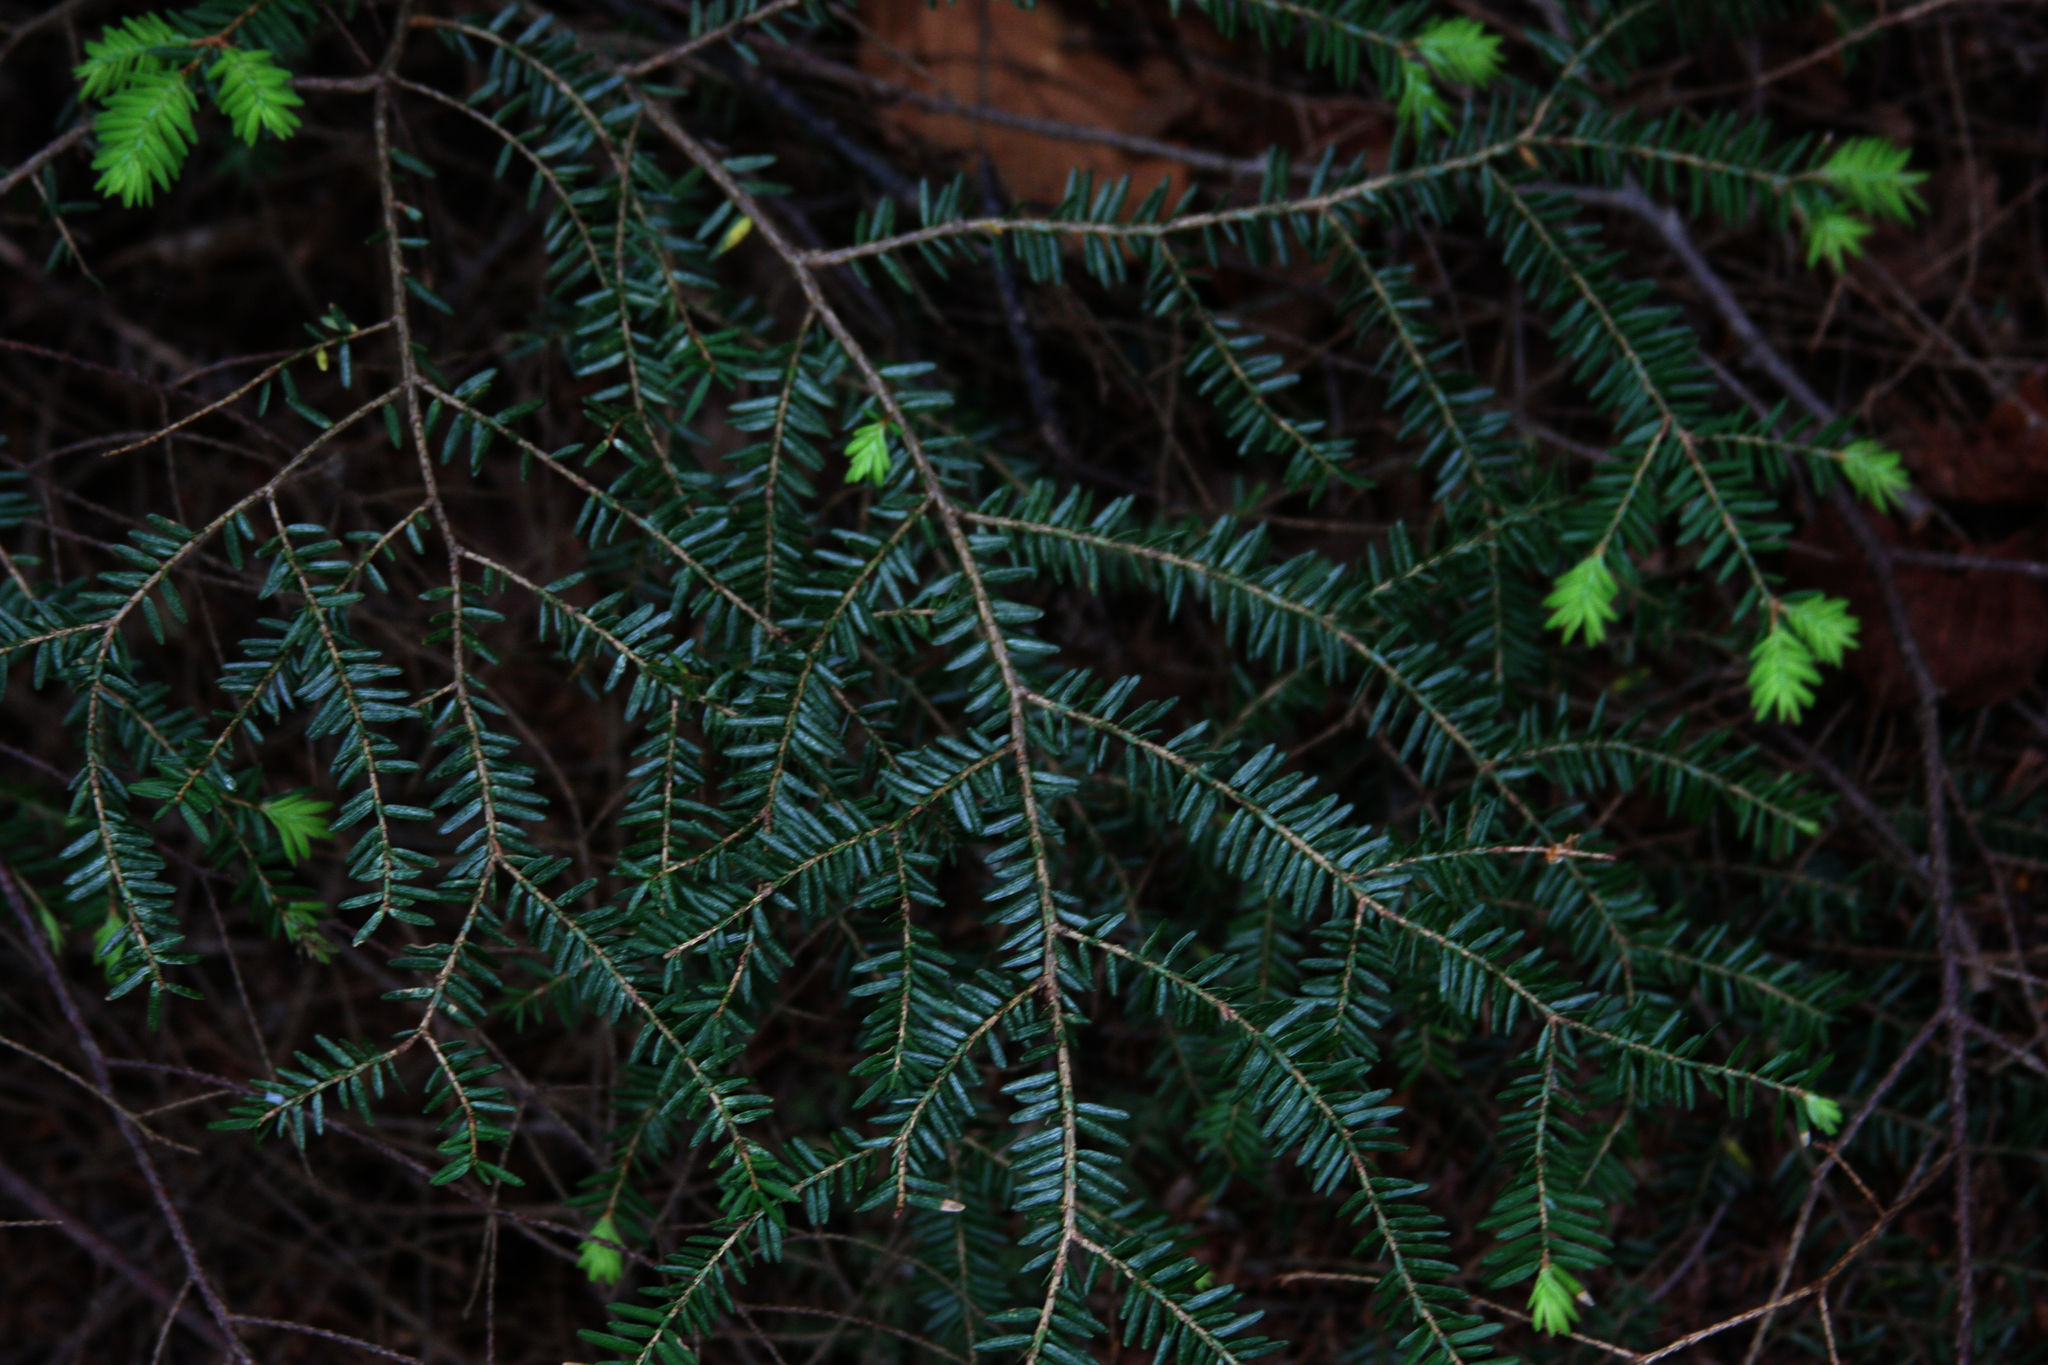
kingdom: Plantae
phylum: Tracheophyta
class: Pinopsida
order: Pinales
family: Pinaceae
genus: Tsuga
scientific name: Tsuga canadensis
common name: Eastern hemlock
